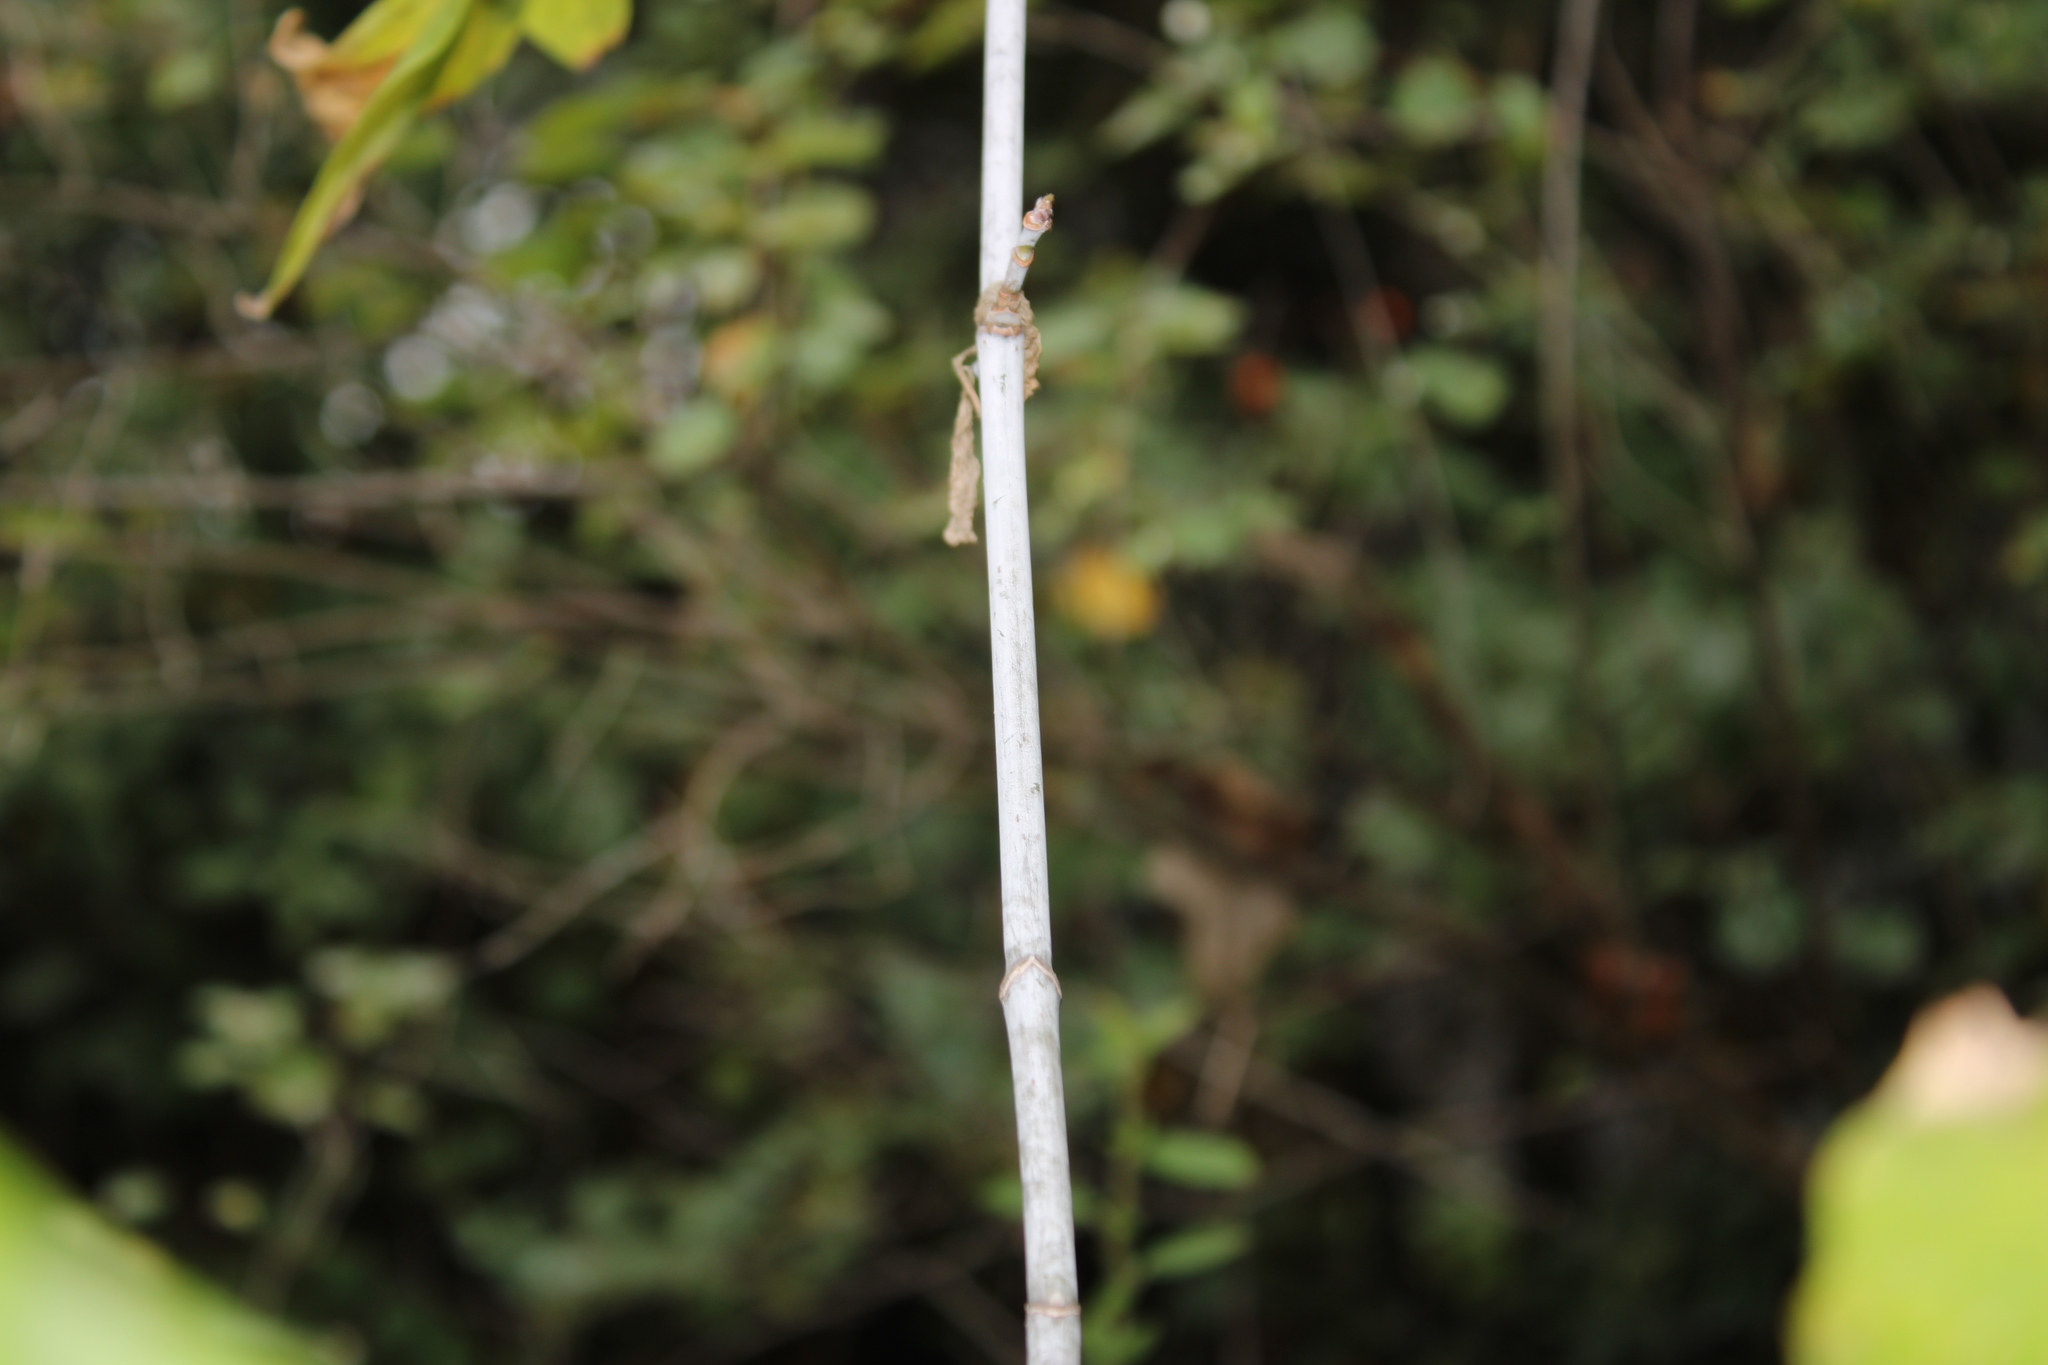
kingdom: Plantae
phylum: Tracheophyta
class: Magnoliopsida
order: Sapindales
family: Sapindaceae
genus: Acer
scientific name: Acer negundo
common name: Ashleaf maple
